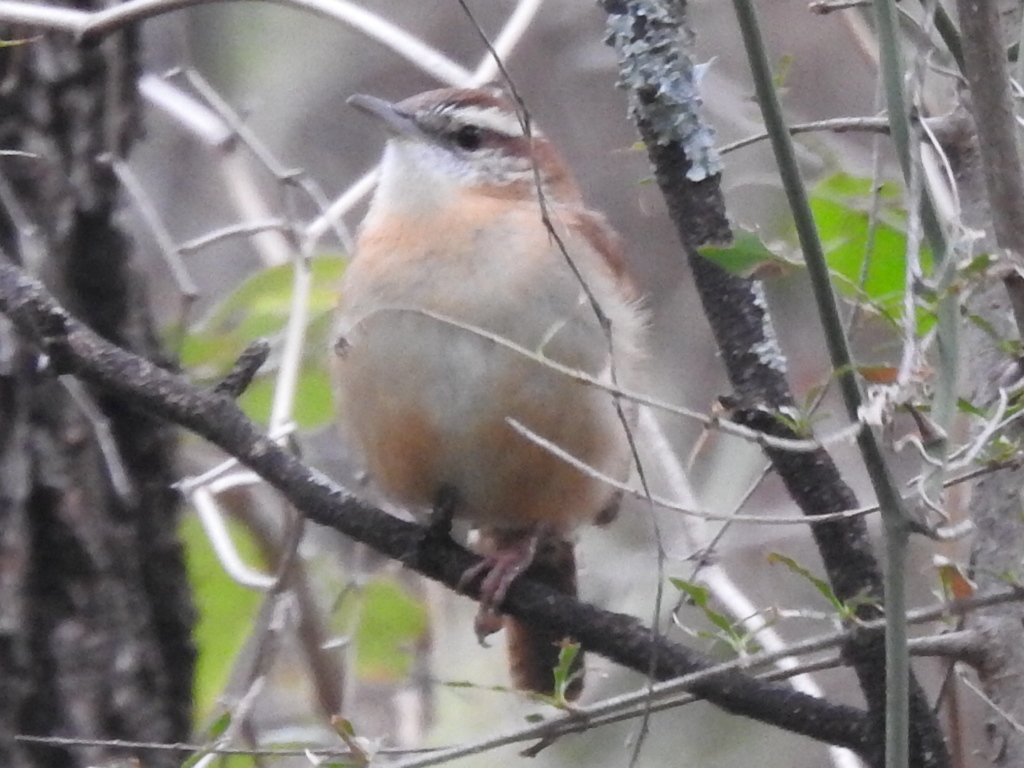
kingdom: Animalia
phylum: Chordata
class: Aves
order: Passeriformes
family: Troglodytidae
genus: Thryothorus
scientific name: Thryothorus ludovicianus
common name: Carolina wren
